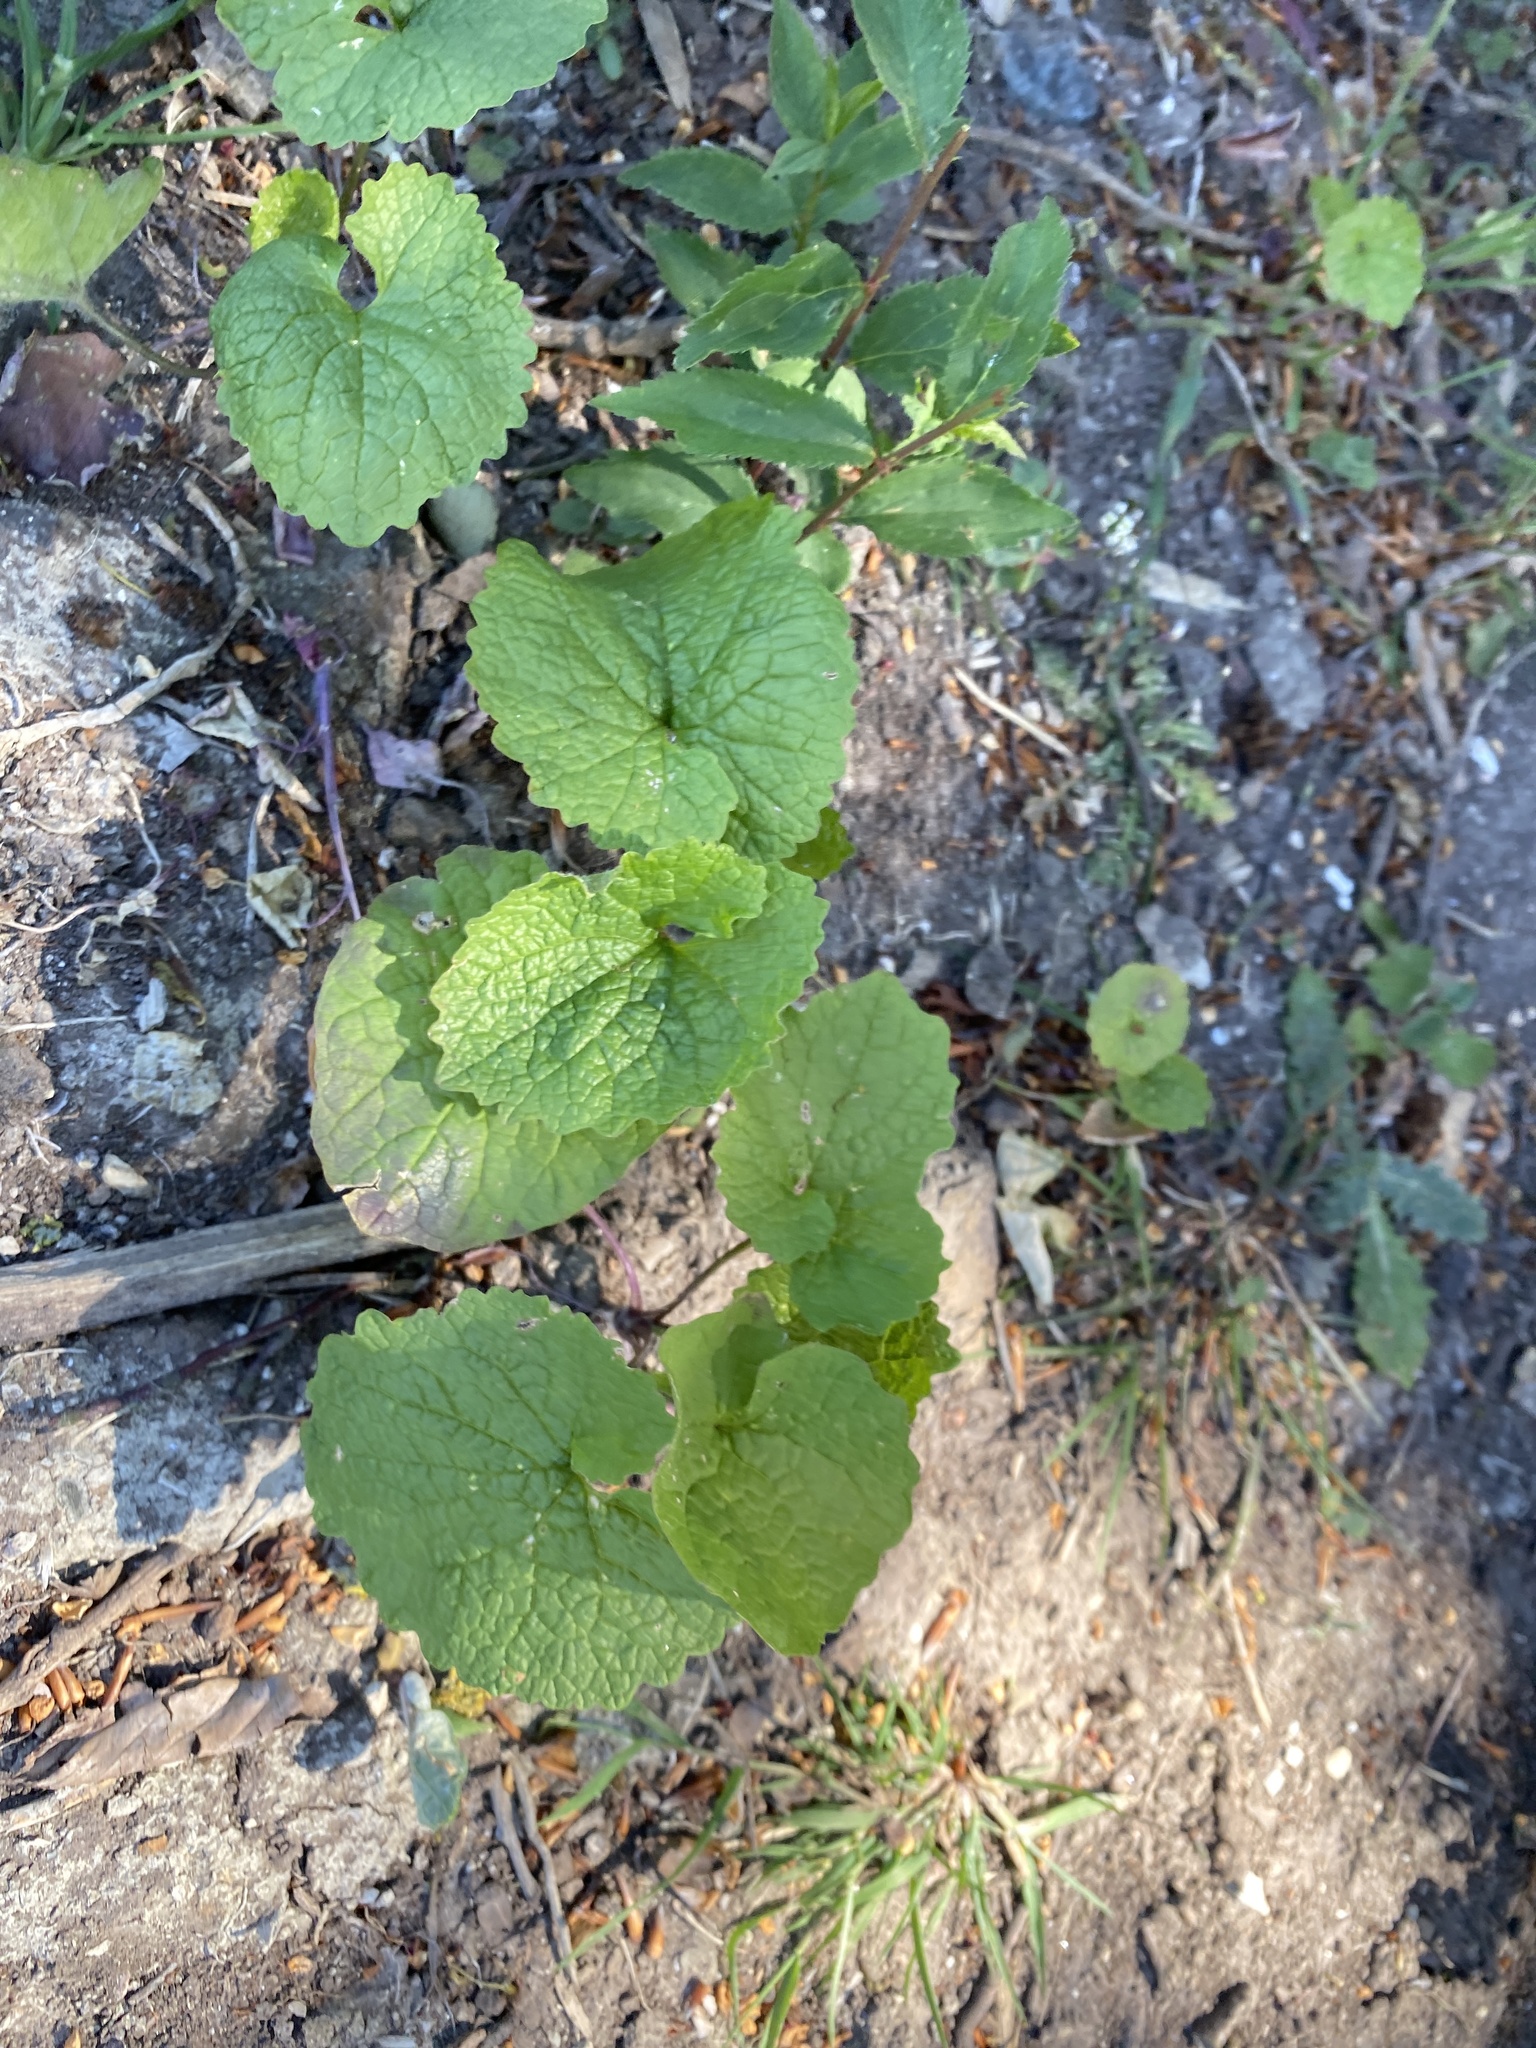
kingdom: Plantae
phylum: Tracheophyta
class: Magnoliopsida
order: Brassicales
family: Brassicaceae
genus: Alliaria
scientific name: Alliaria petiolata
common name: Garlic mustard
